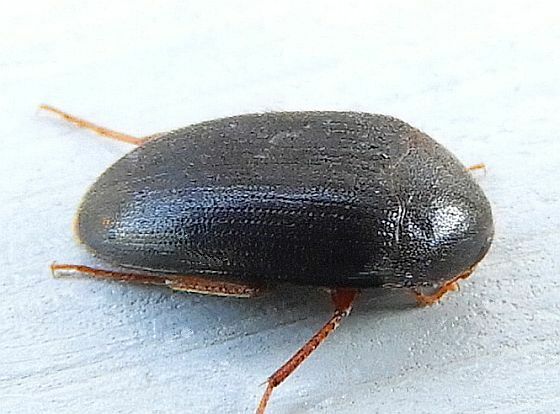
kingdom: Animalia
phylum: Arthropoda
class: Insecta
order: Coleoptera
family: Tetratomidae
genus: Eustrophopsis
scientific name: Eustrophopsis bicolor
